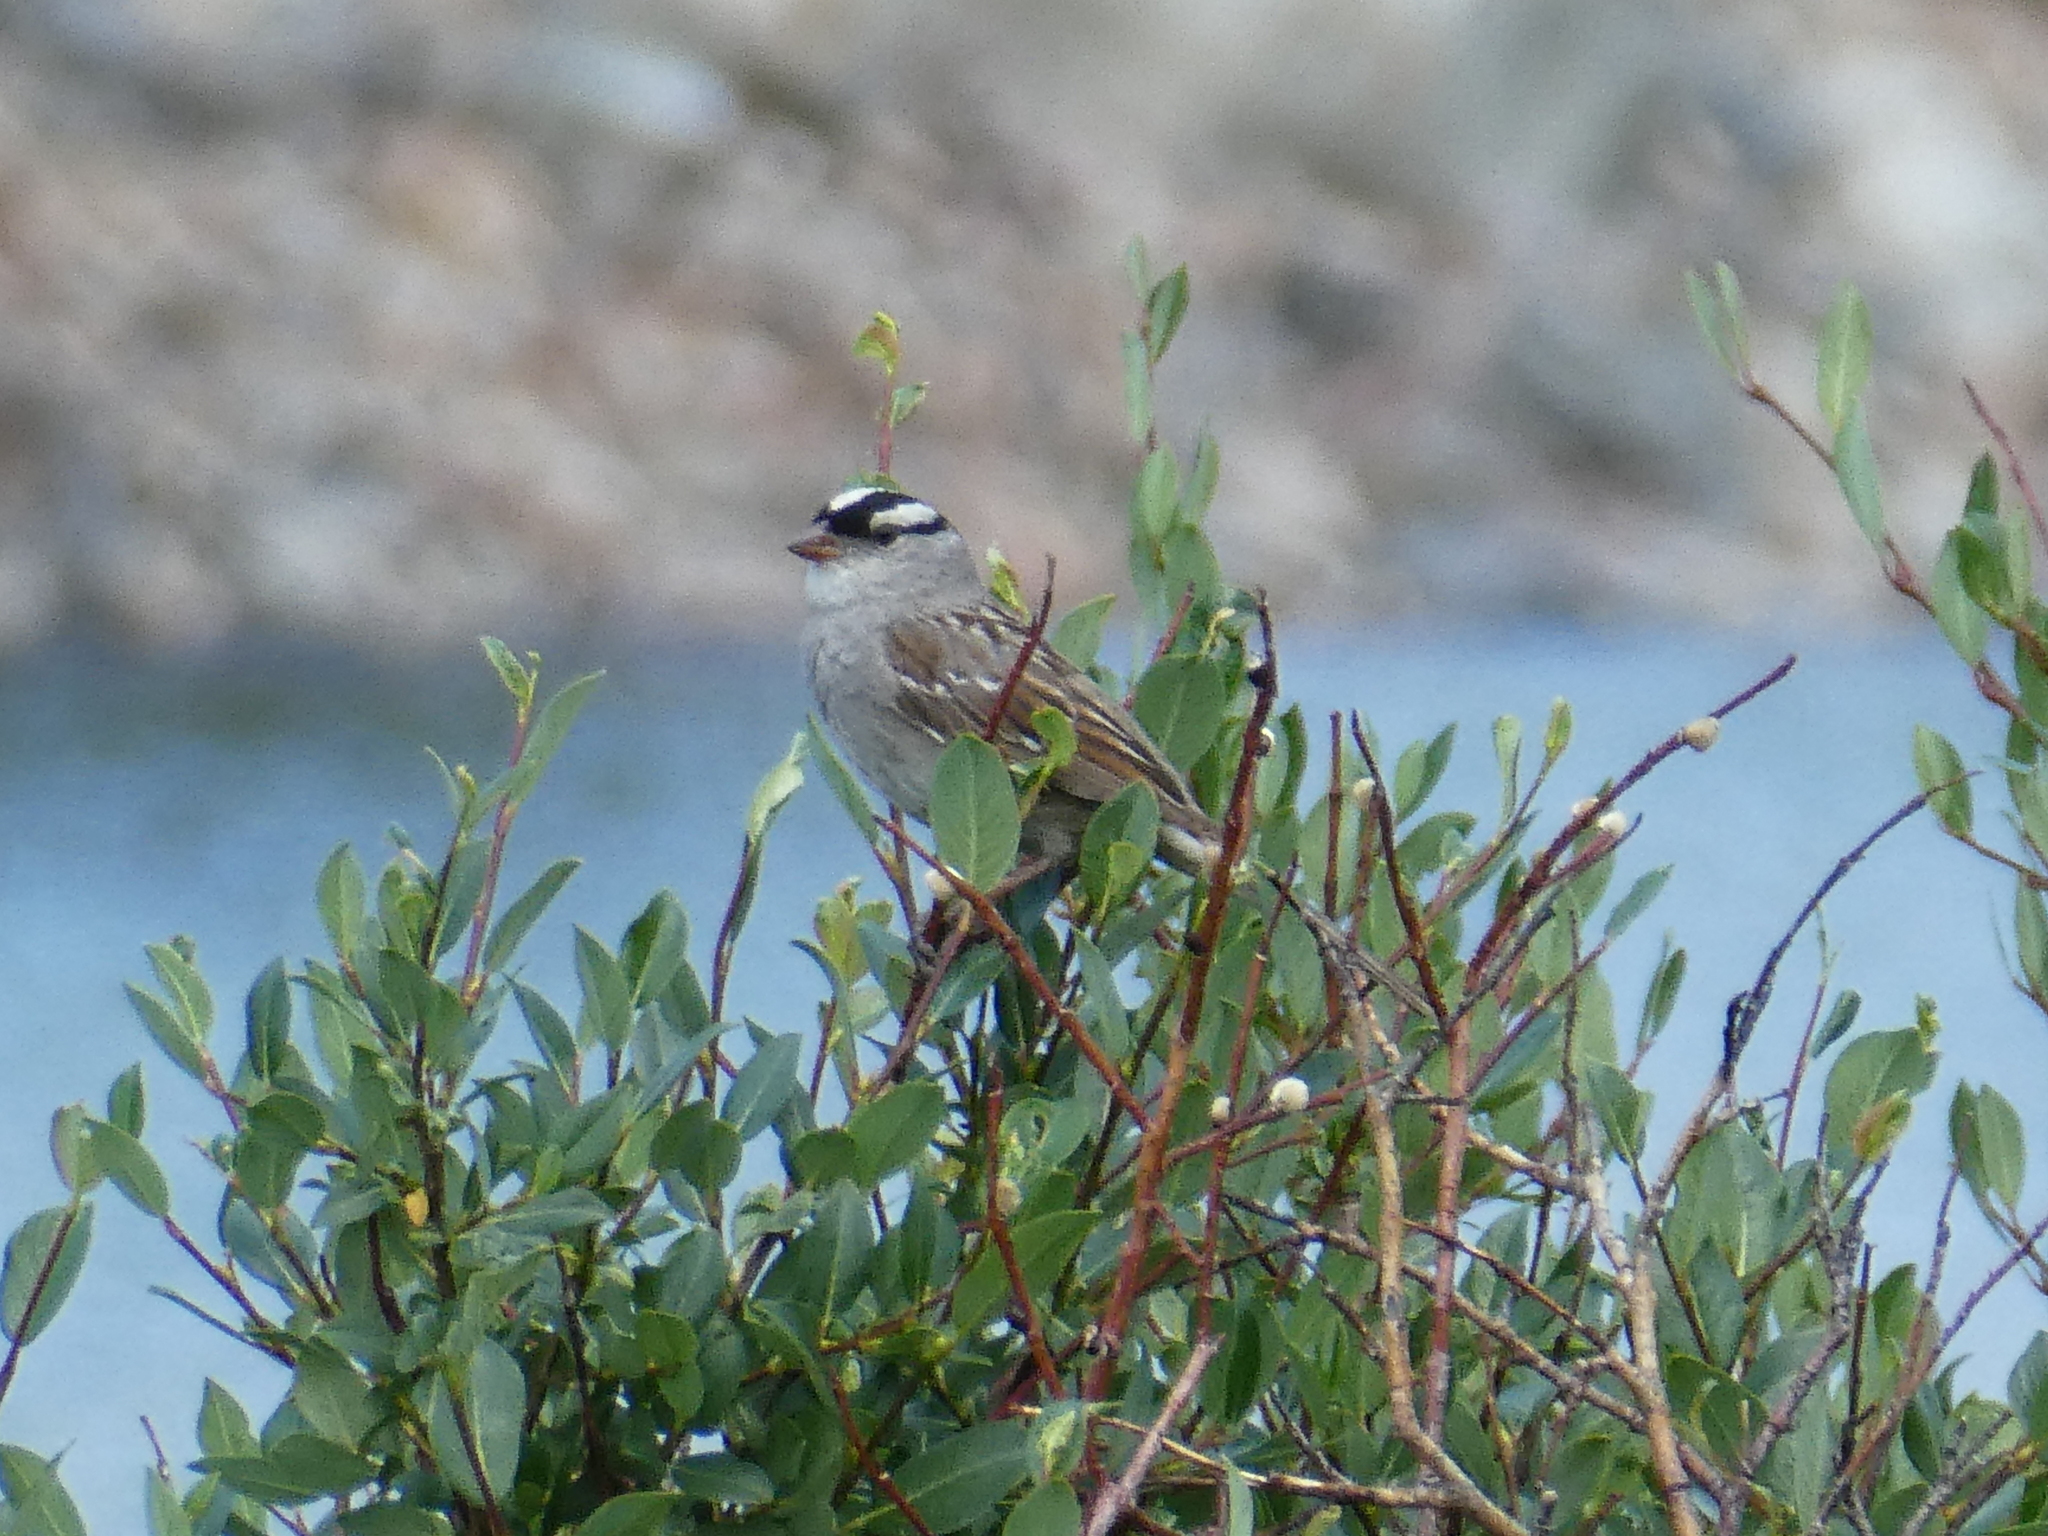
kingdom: Animalia
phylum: Chordata
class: Aves
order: Passeriformes
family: Passerellidae
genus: Zonotrichia
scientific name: Zonotrichia leucophrys
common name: White-crowned sparrow
